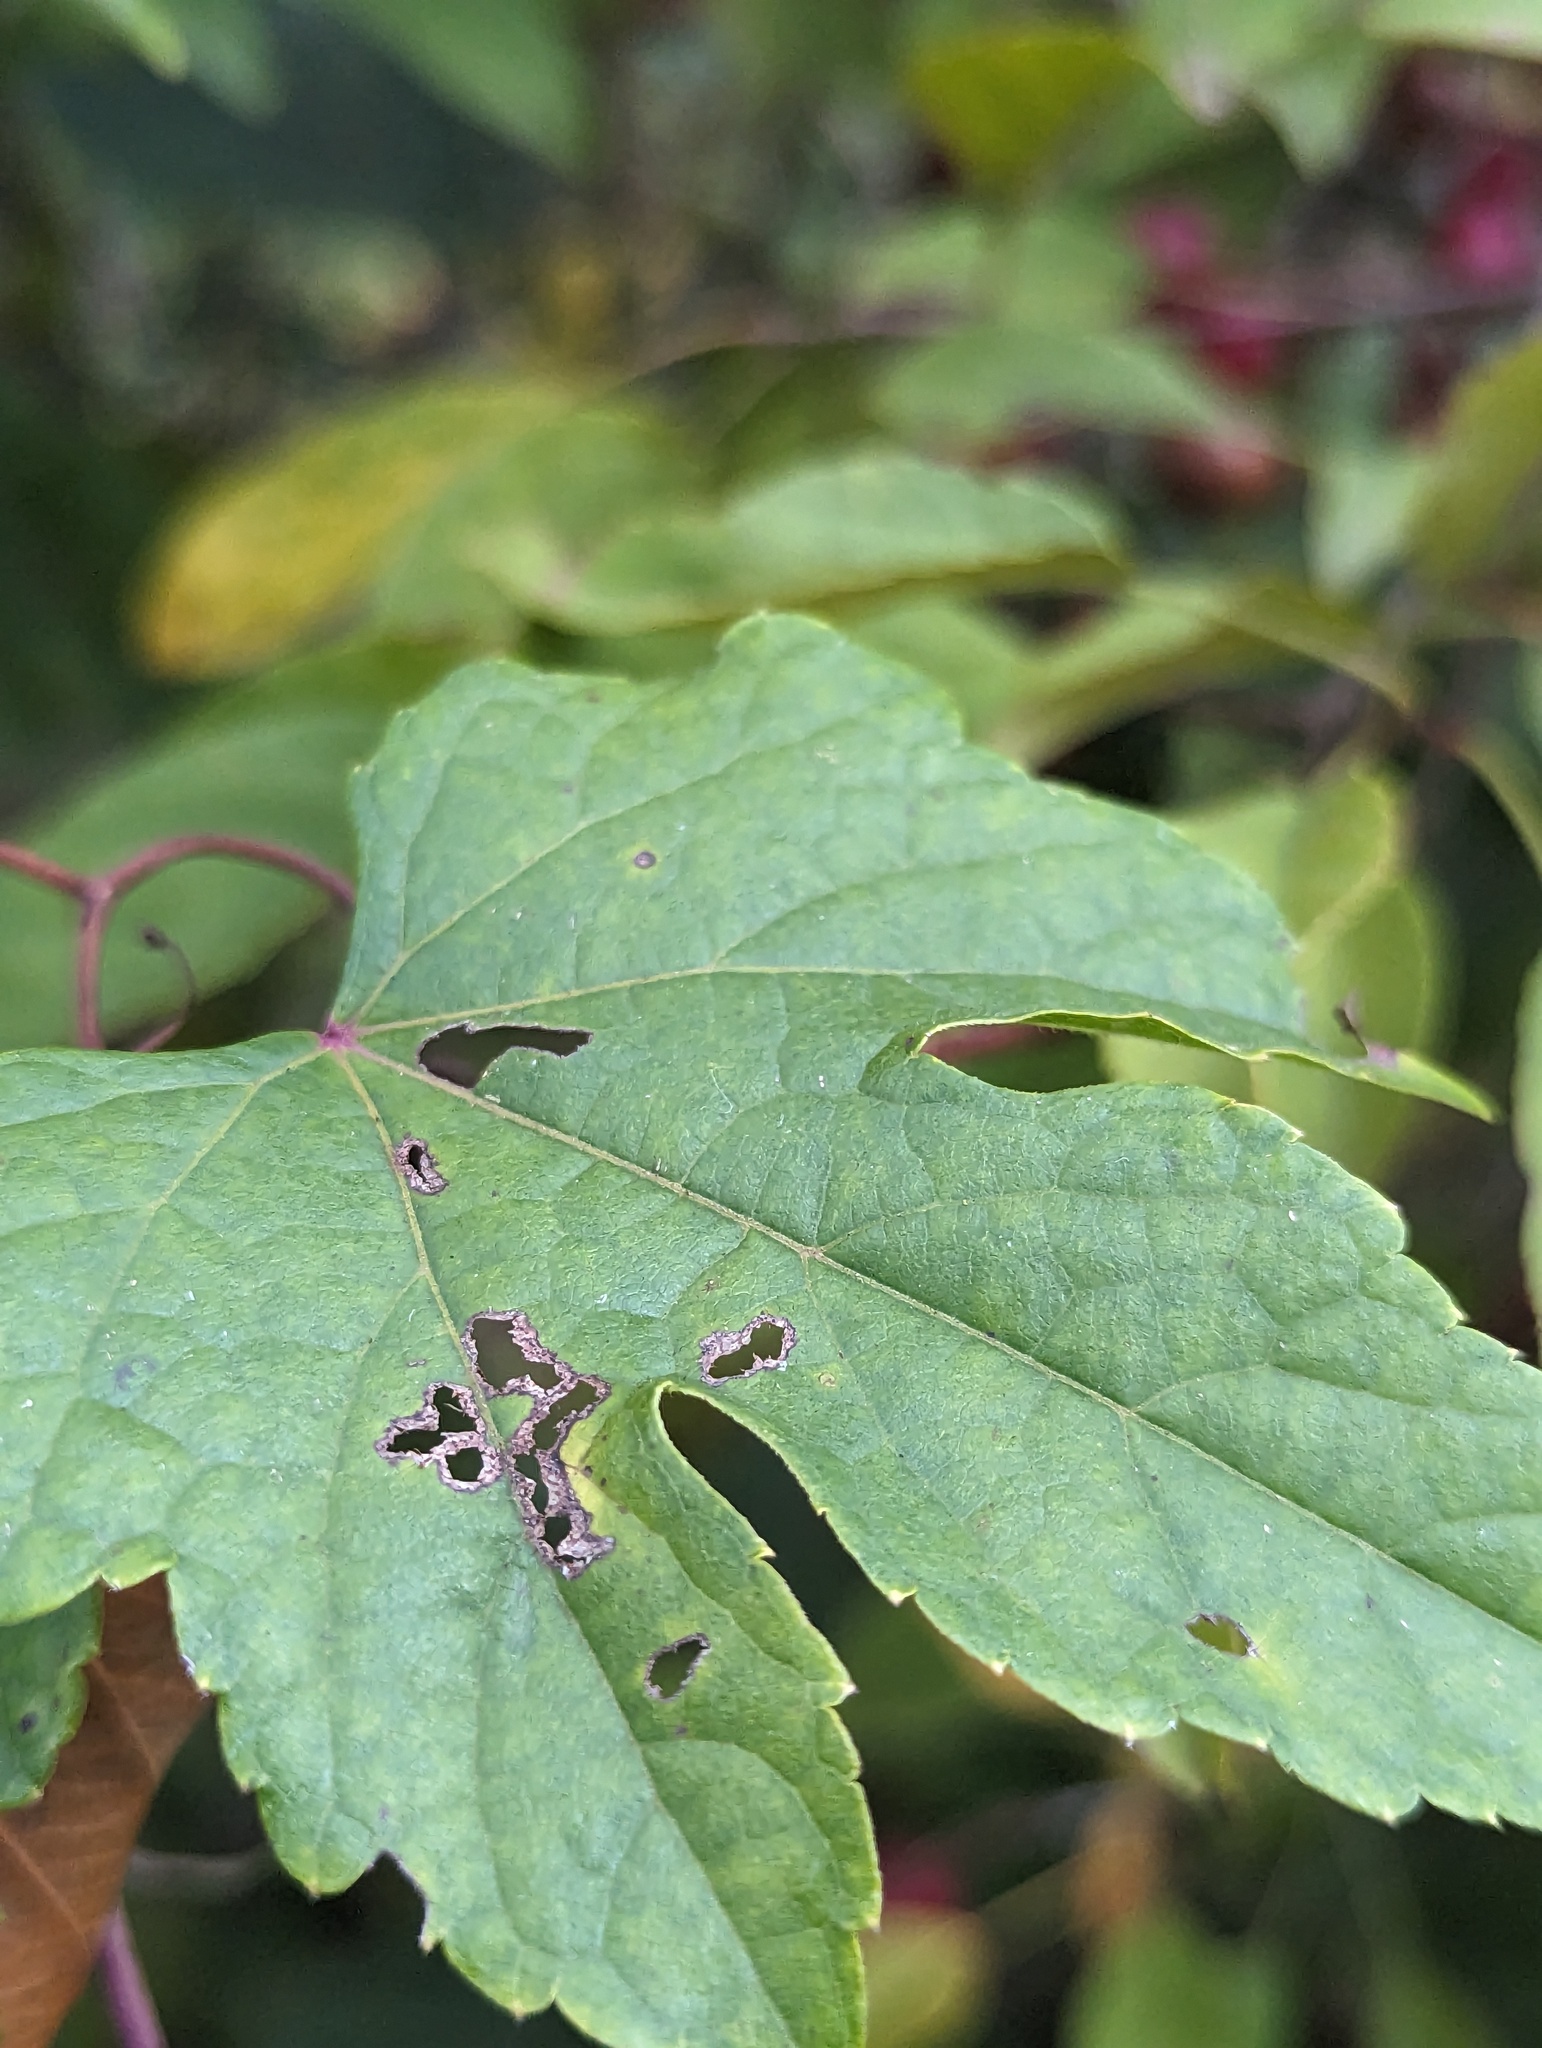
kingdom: Plantae
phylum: Tracheophyta
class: Magnoliopsida
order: Vitales
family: Vitaceae
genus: Ampelopsis
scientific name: Ampelopsis glandulosa
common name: Amur peppervine
